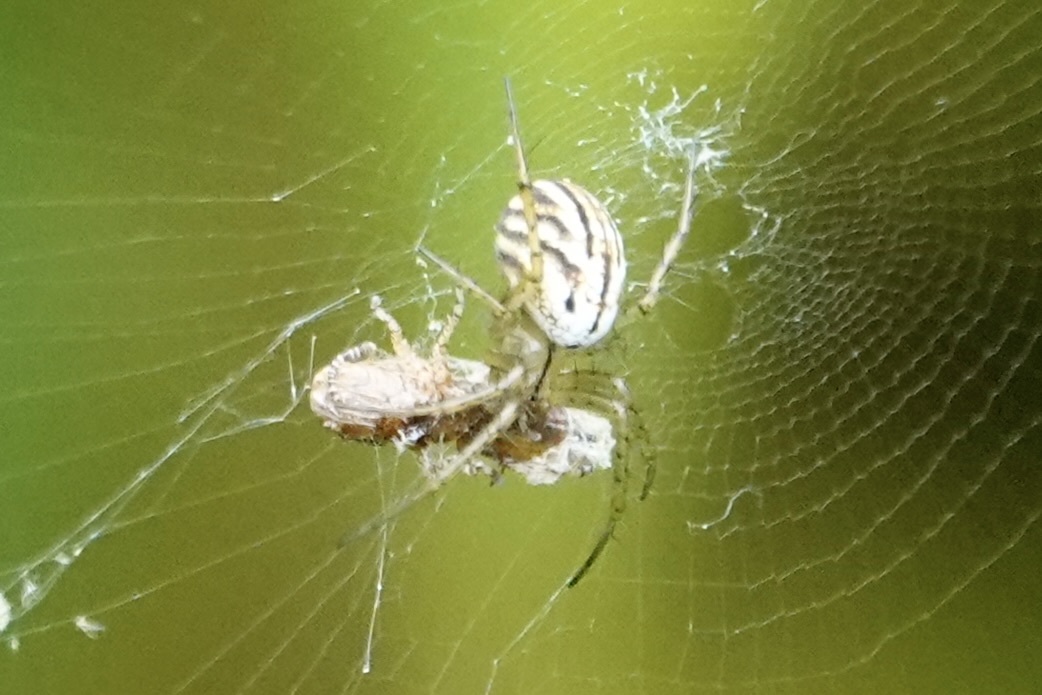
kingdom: Animalia
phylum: Arthropoda
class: Arachnida
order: Araneae
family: Araneidae
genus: Mangora
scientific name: Mangora gibberosa
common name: Lined orbweaver
